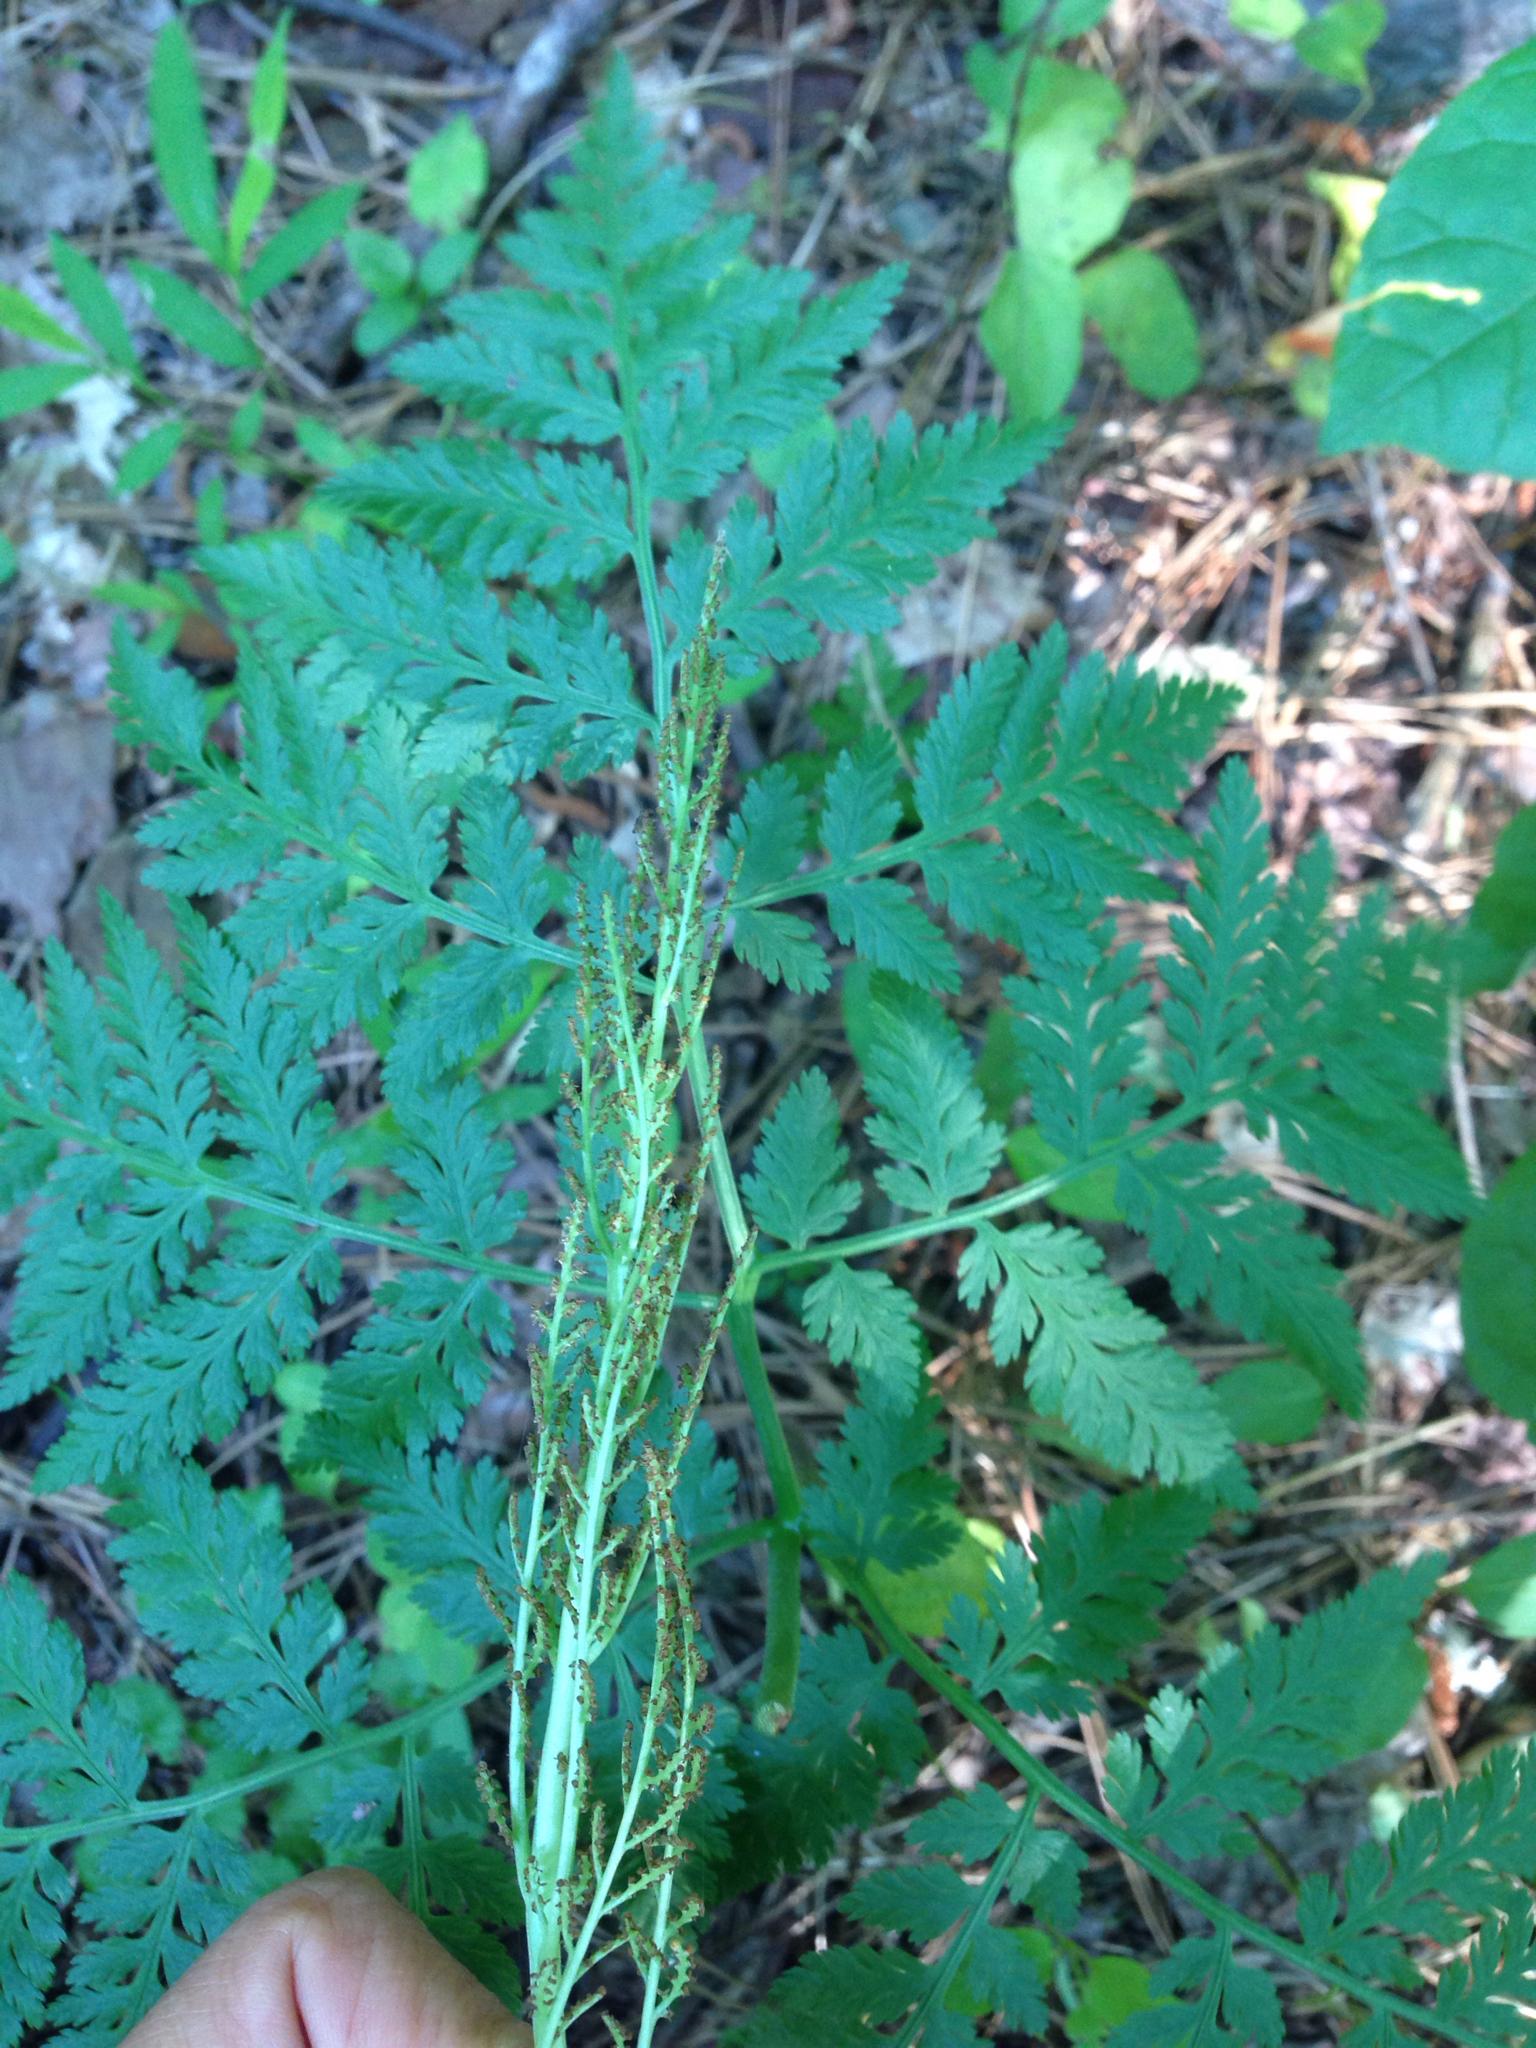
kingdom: Plantae
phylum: Tracheophyta
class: Polypodiopsida
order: Ophioglossales
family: Ophioglossaceae
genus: Botrypus
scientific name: Botrypus virginianus
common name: Common grapefern
